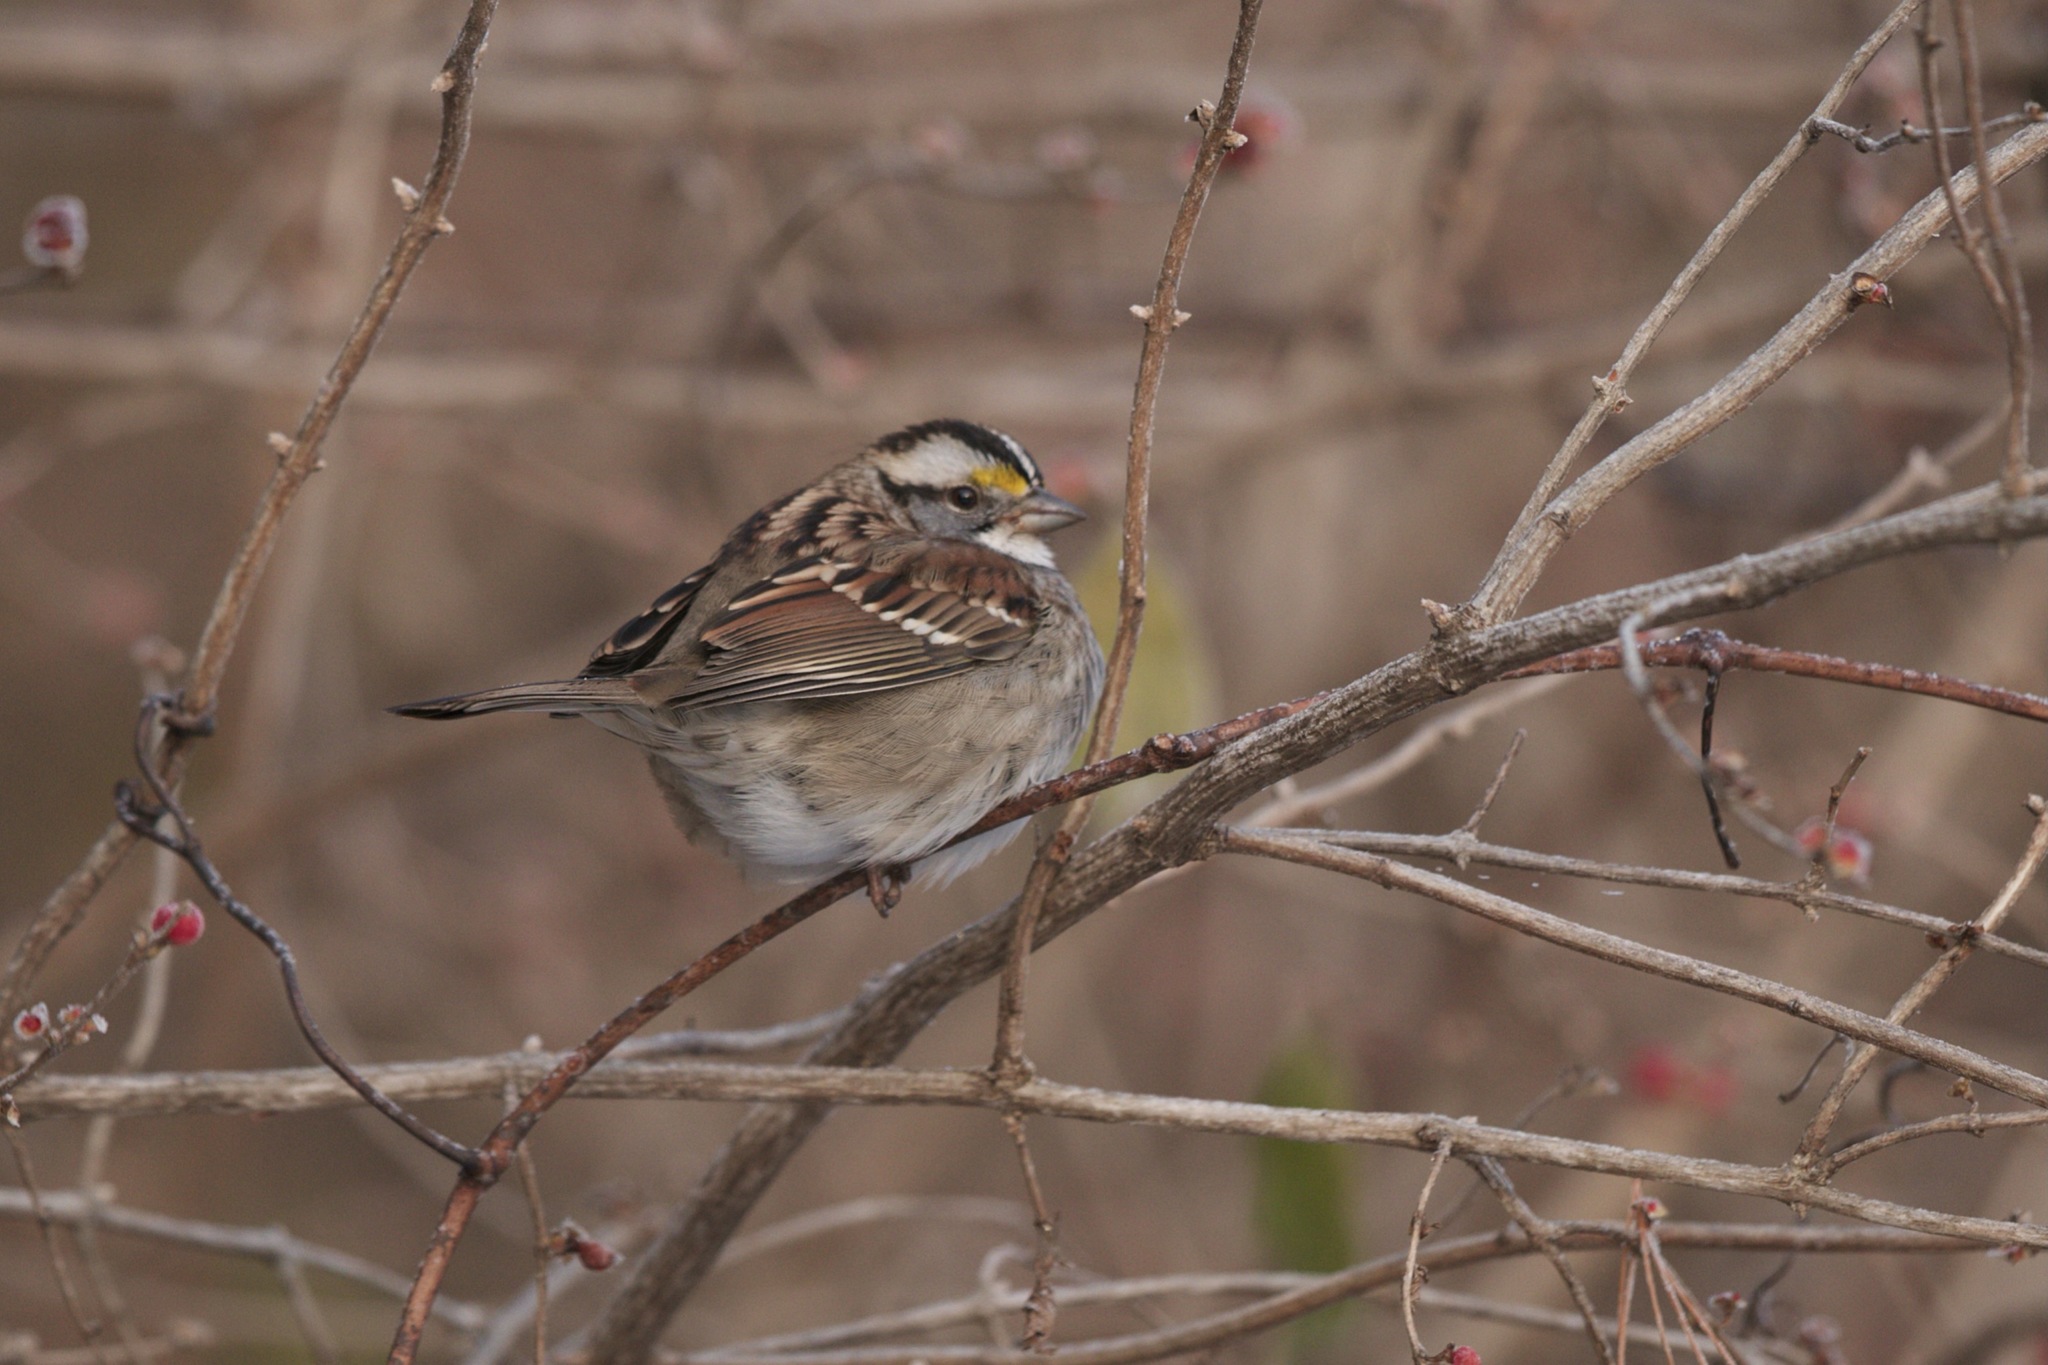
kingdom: Animalia
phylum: Chordata
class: Aves
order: Passeriformes
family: Passerellidae
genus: Zonotrichia
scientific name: Zonotrichia albicollis
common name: White-throated sparrow
